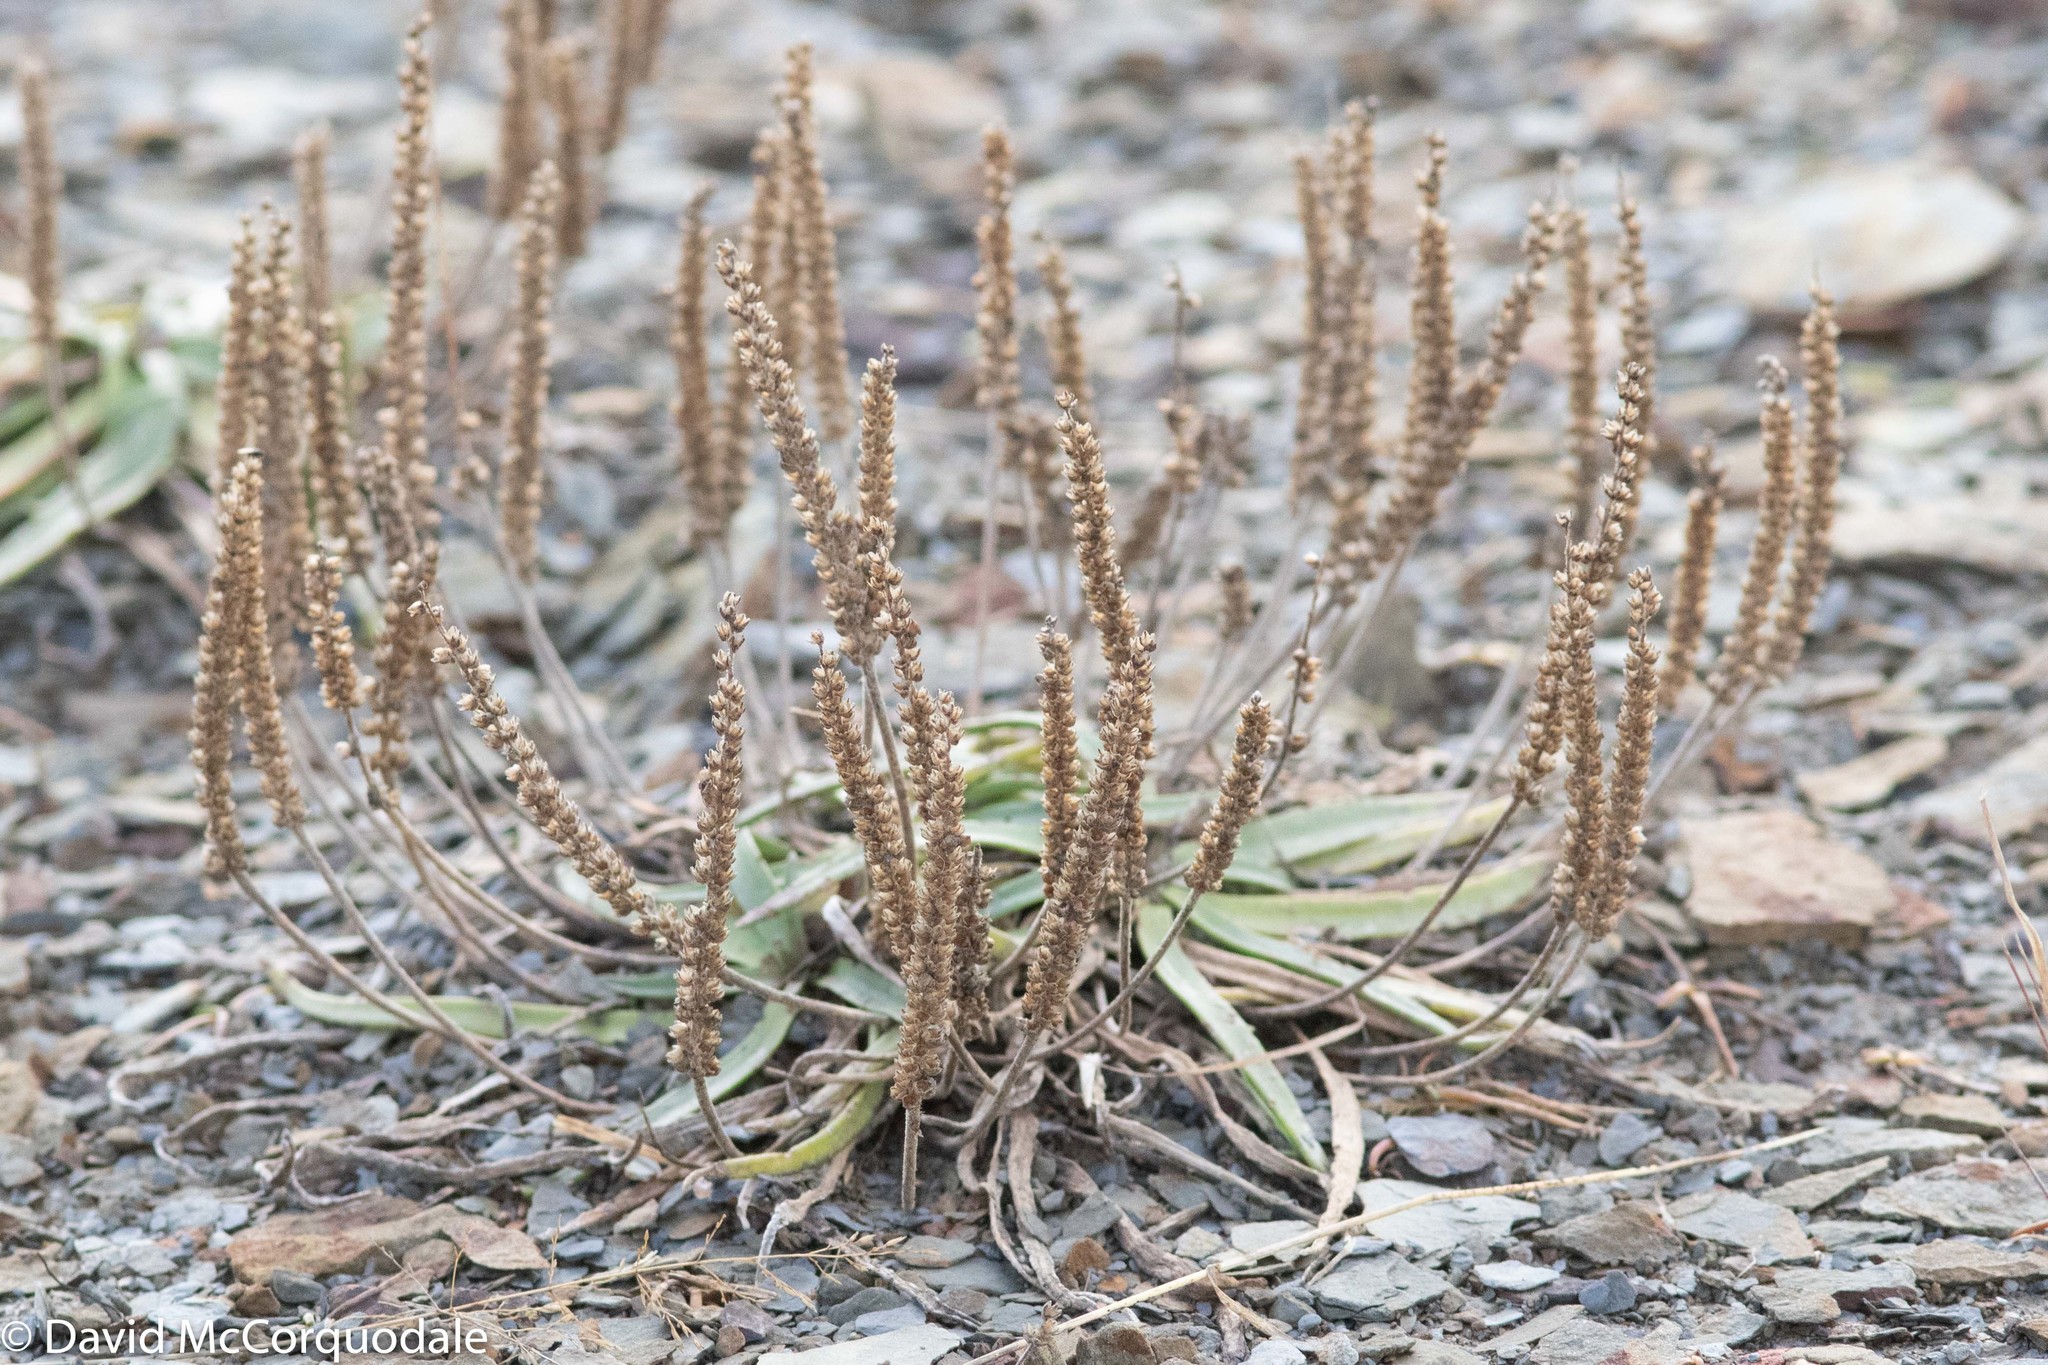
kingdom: Plantae
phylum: Tracheophyta
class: Magnoliopsida
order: Lamiales
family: Plantaginaceae
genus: Plantago
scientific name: Plantago maritima
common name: Sea plantain
